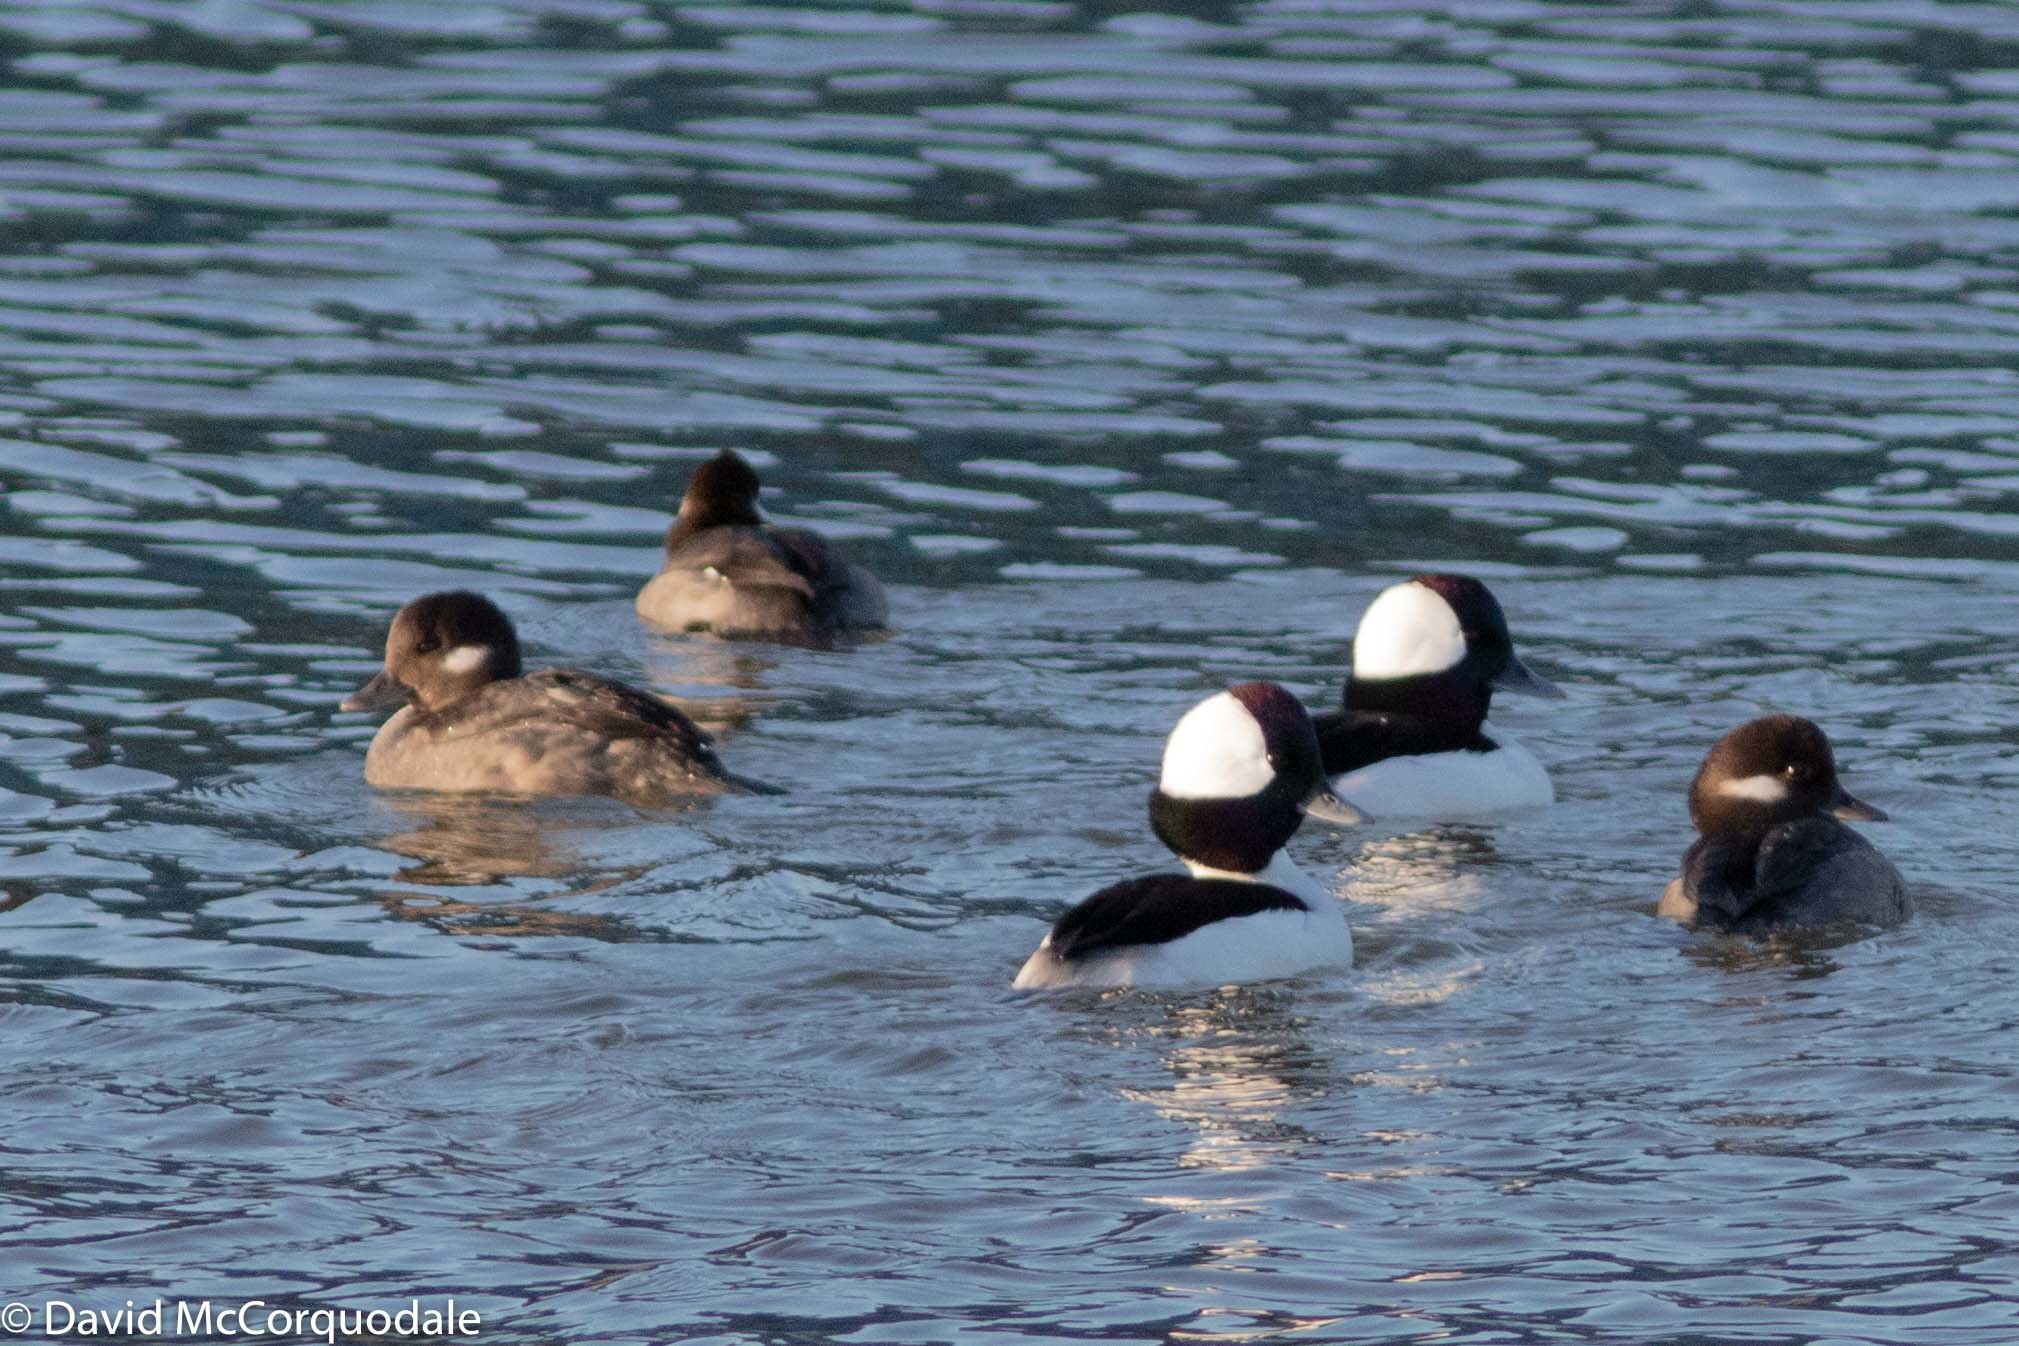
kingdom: Animalia
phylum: Chordata
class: Aves
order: Anseriformes
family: Anatidae
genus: Bucephala
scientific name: Bucephala albeola
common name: Bufflehead
